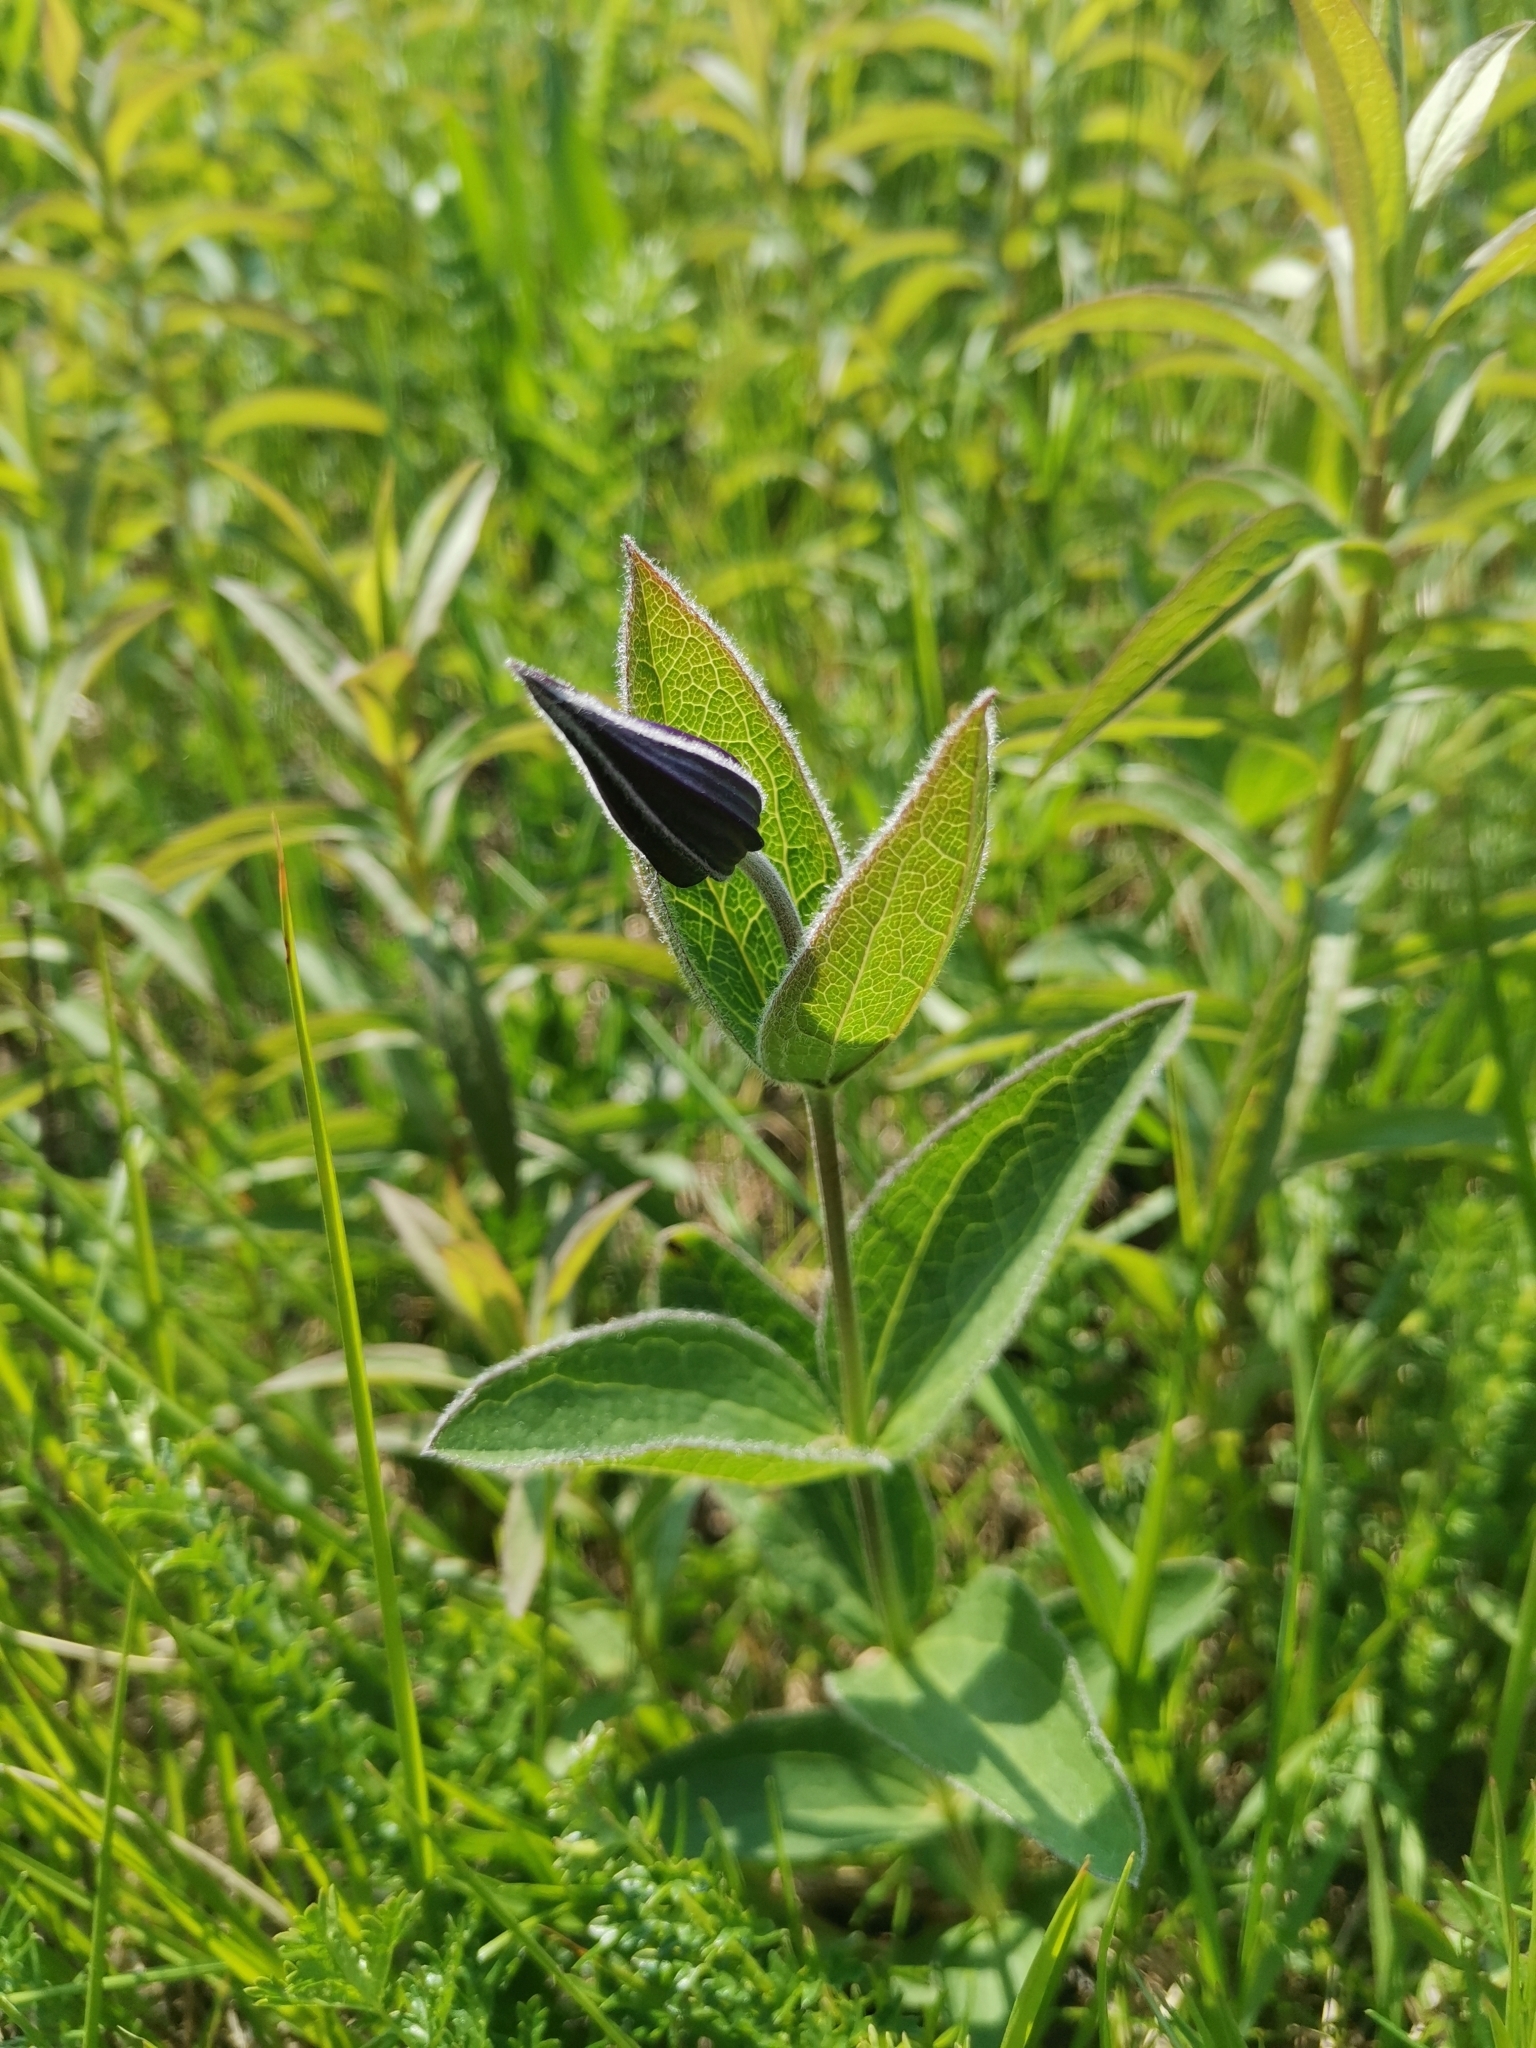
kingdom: Plantae
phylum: Tracheophyta
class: Magnoliopsida
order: Ranunculales
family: Ranunculaceae
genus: Clematis
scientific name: Clematis integrifolia
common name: Solitary clematis
